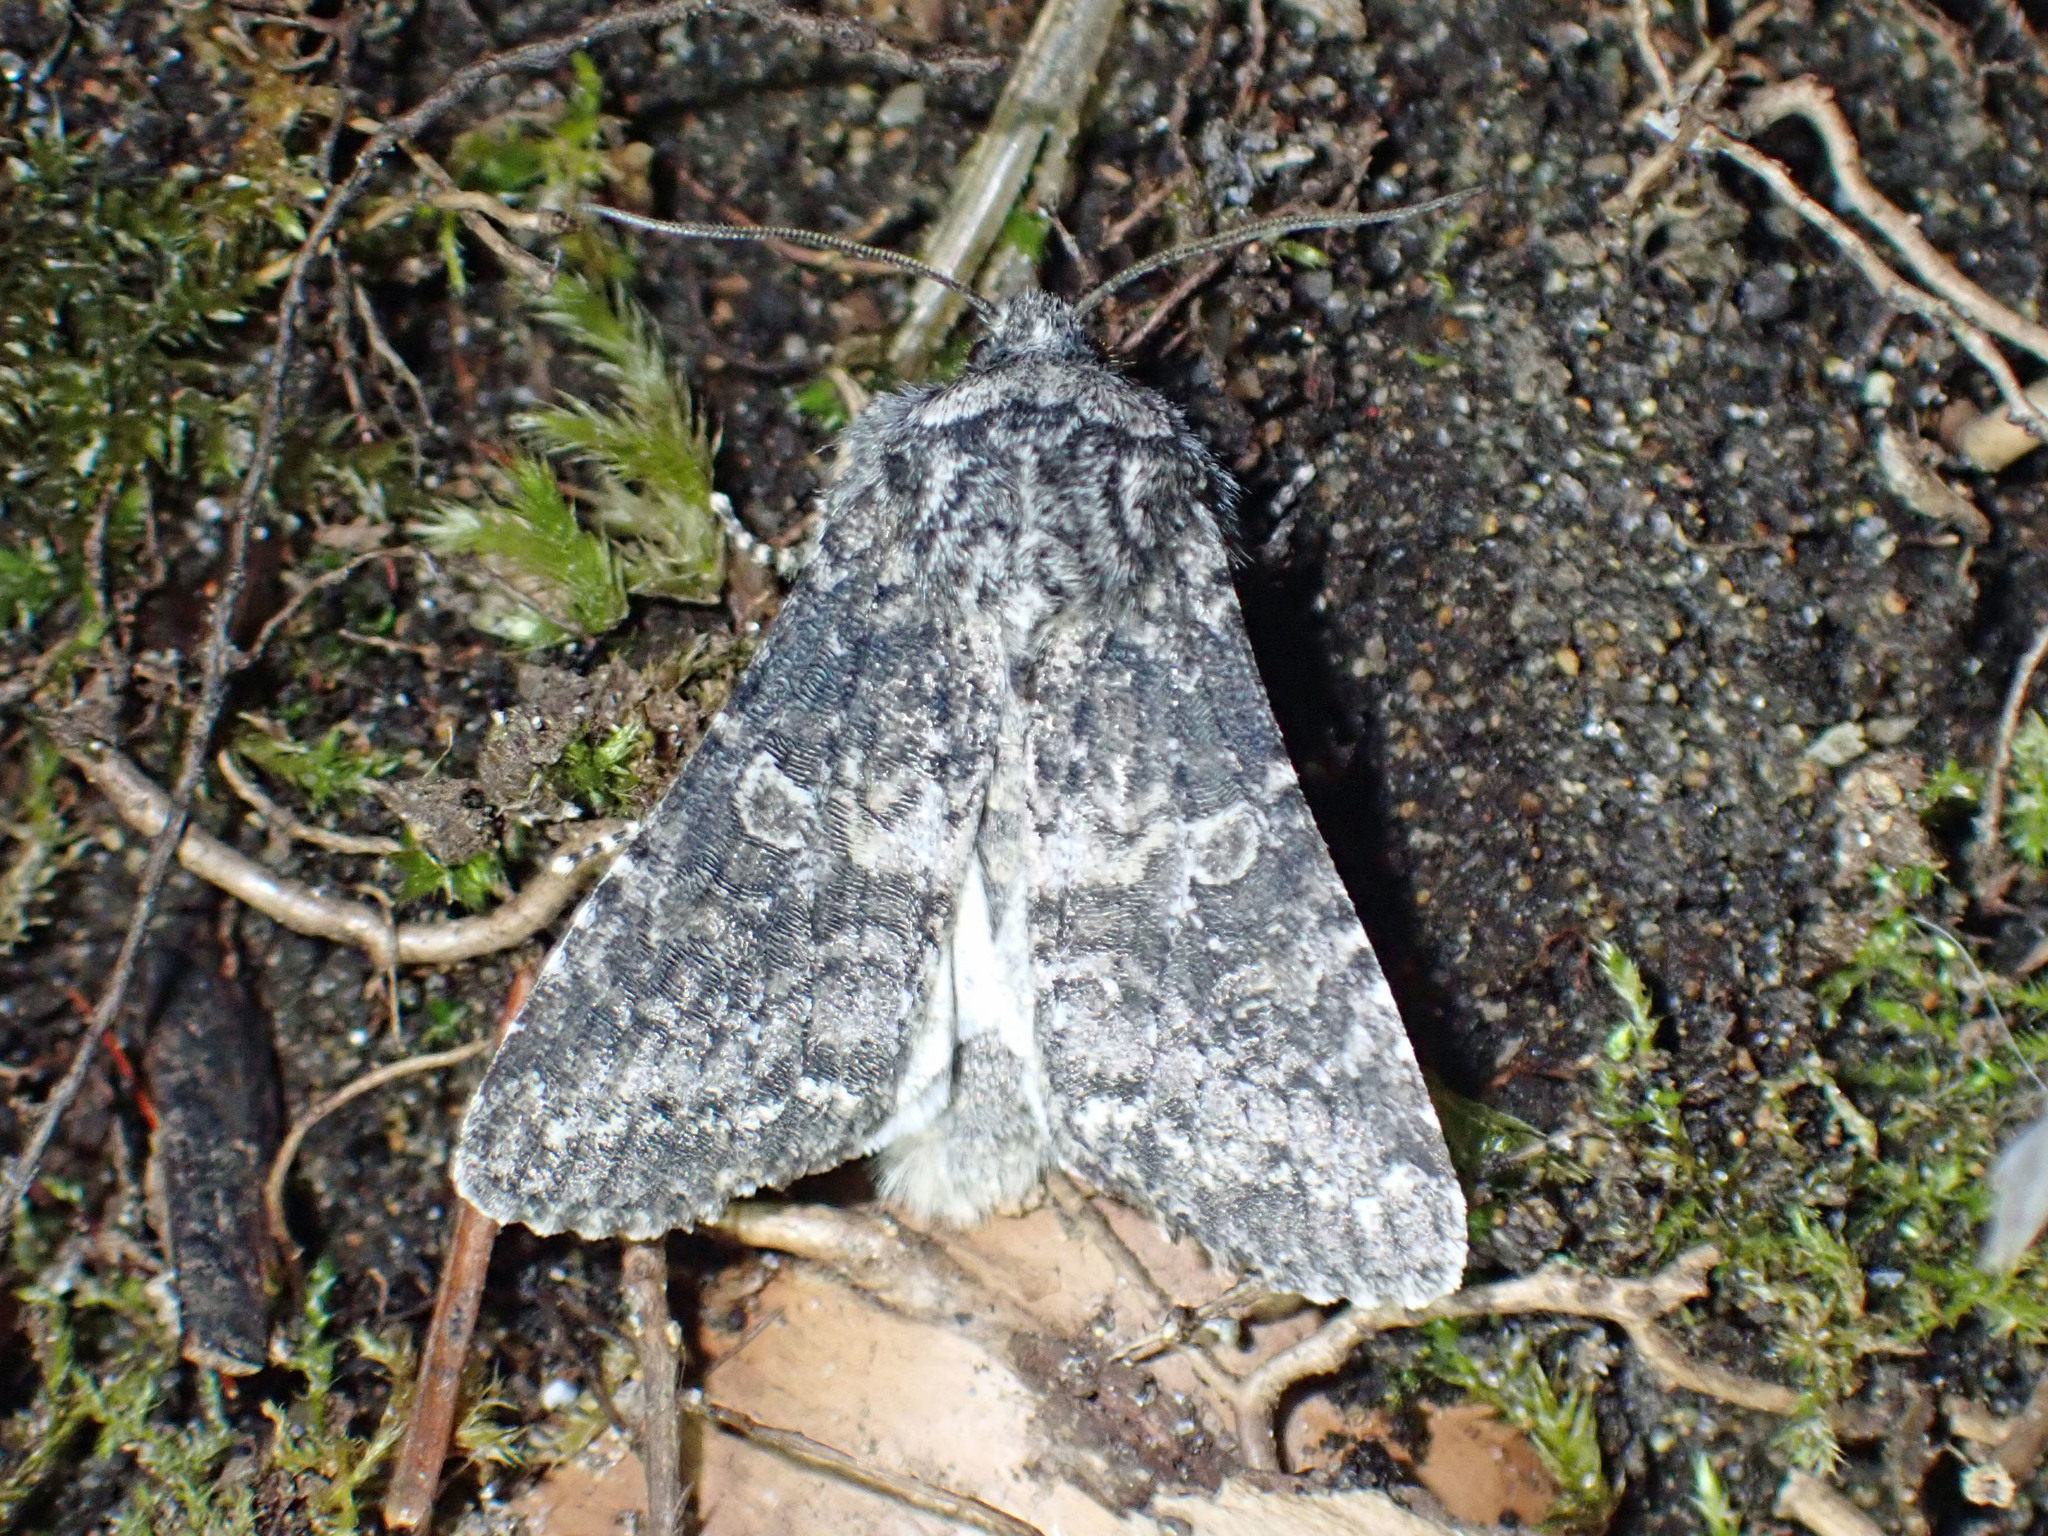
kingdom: Animalia
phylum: Arthropoda
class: Insecta
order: Lepidoptera
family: Noctuidae
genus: Egira
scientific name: Egira dolosa
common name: Lined black aspen cat.
